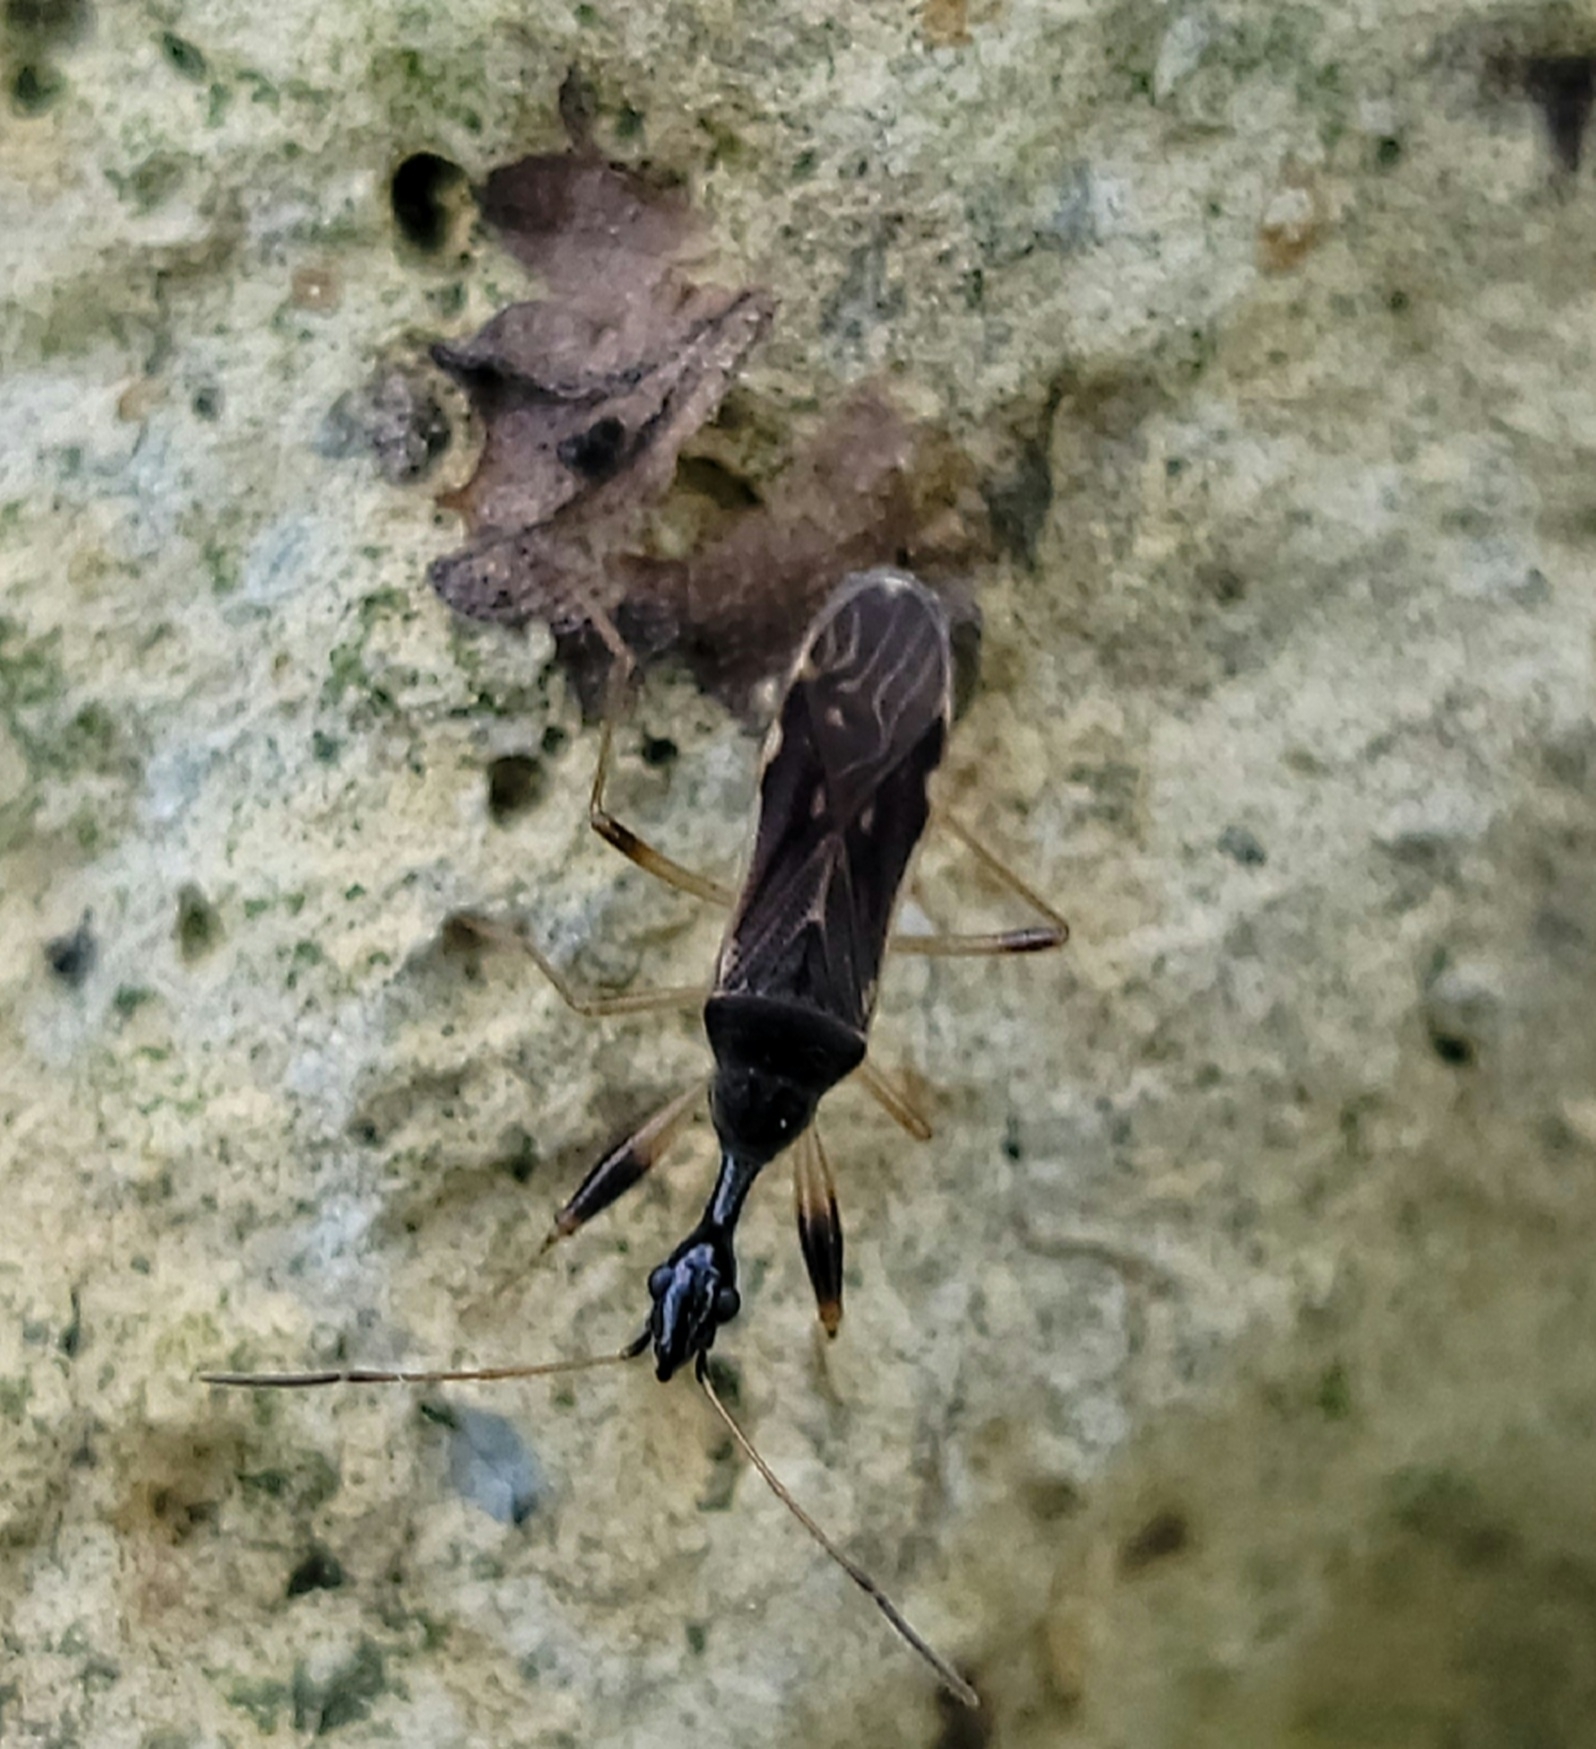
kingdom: Animalia
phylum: Arthropoda
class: Insecta
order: Hemiptera
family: Rhyparochromidae
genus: Myodocha
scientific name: Myodocha serripes
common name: Long-necked seed bug
